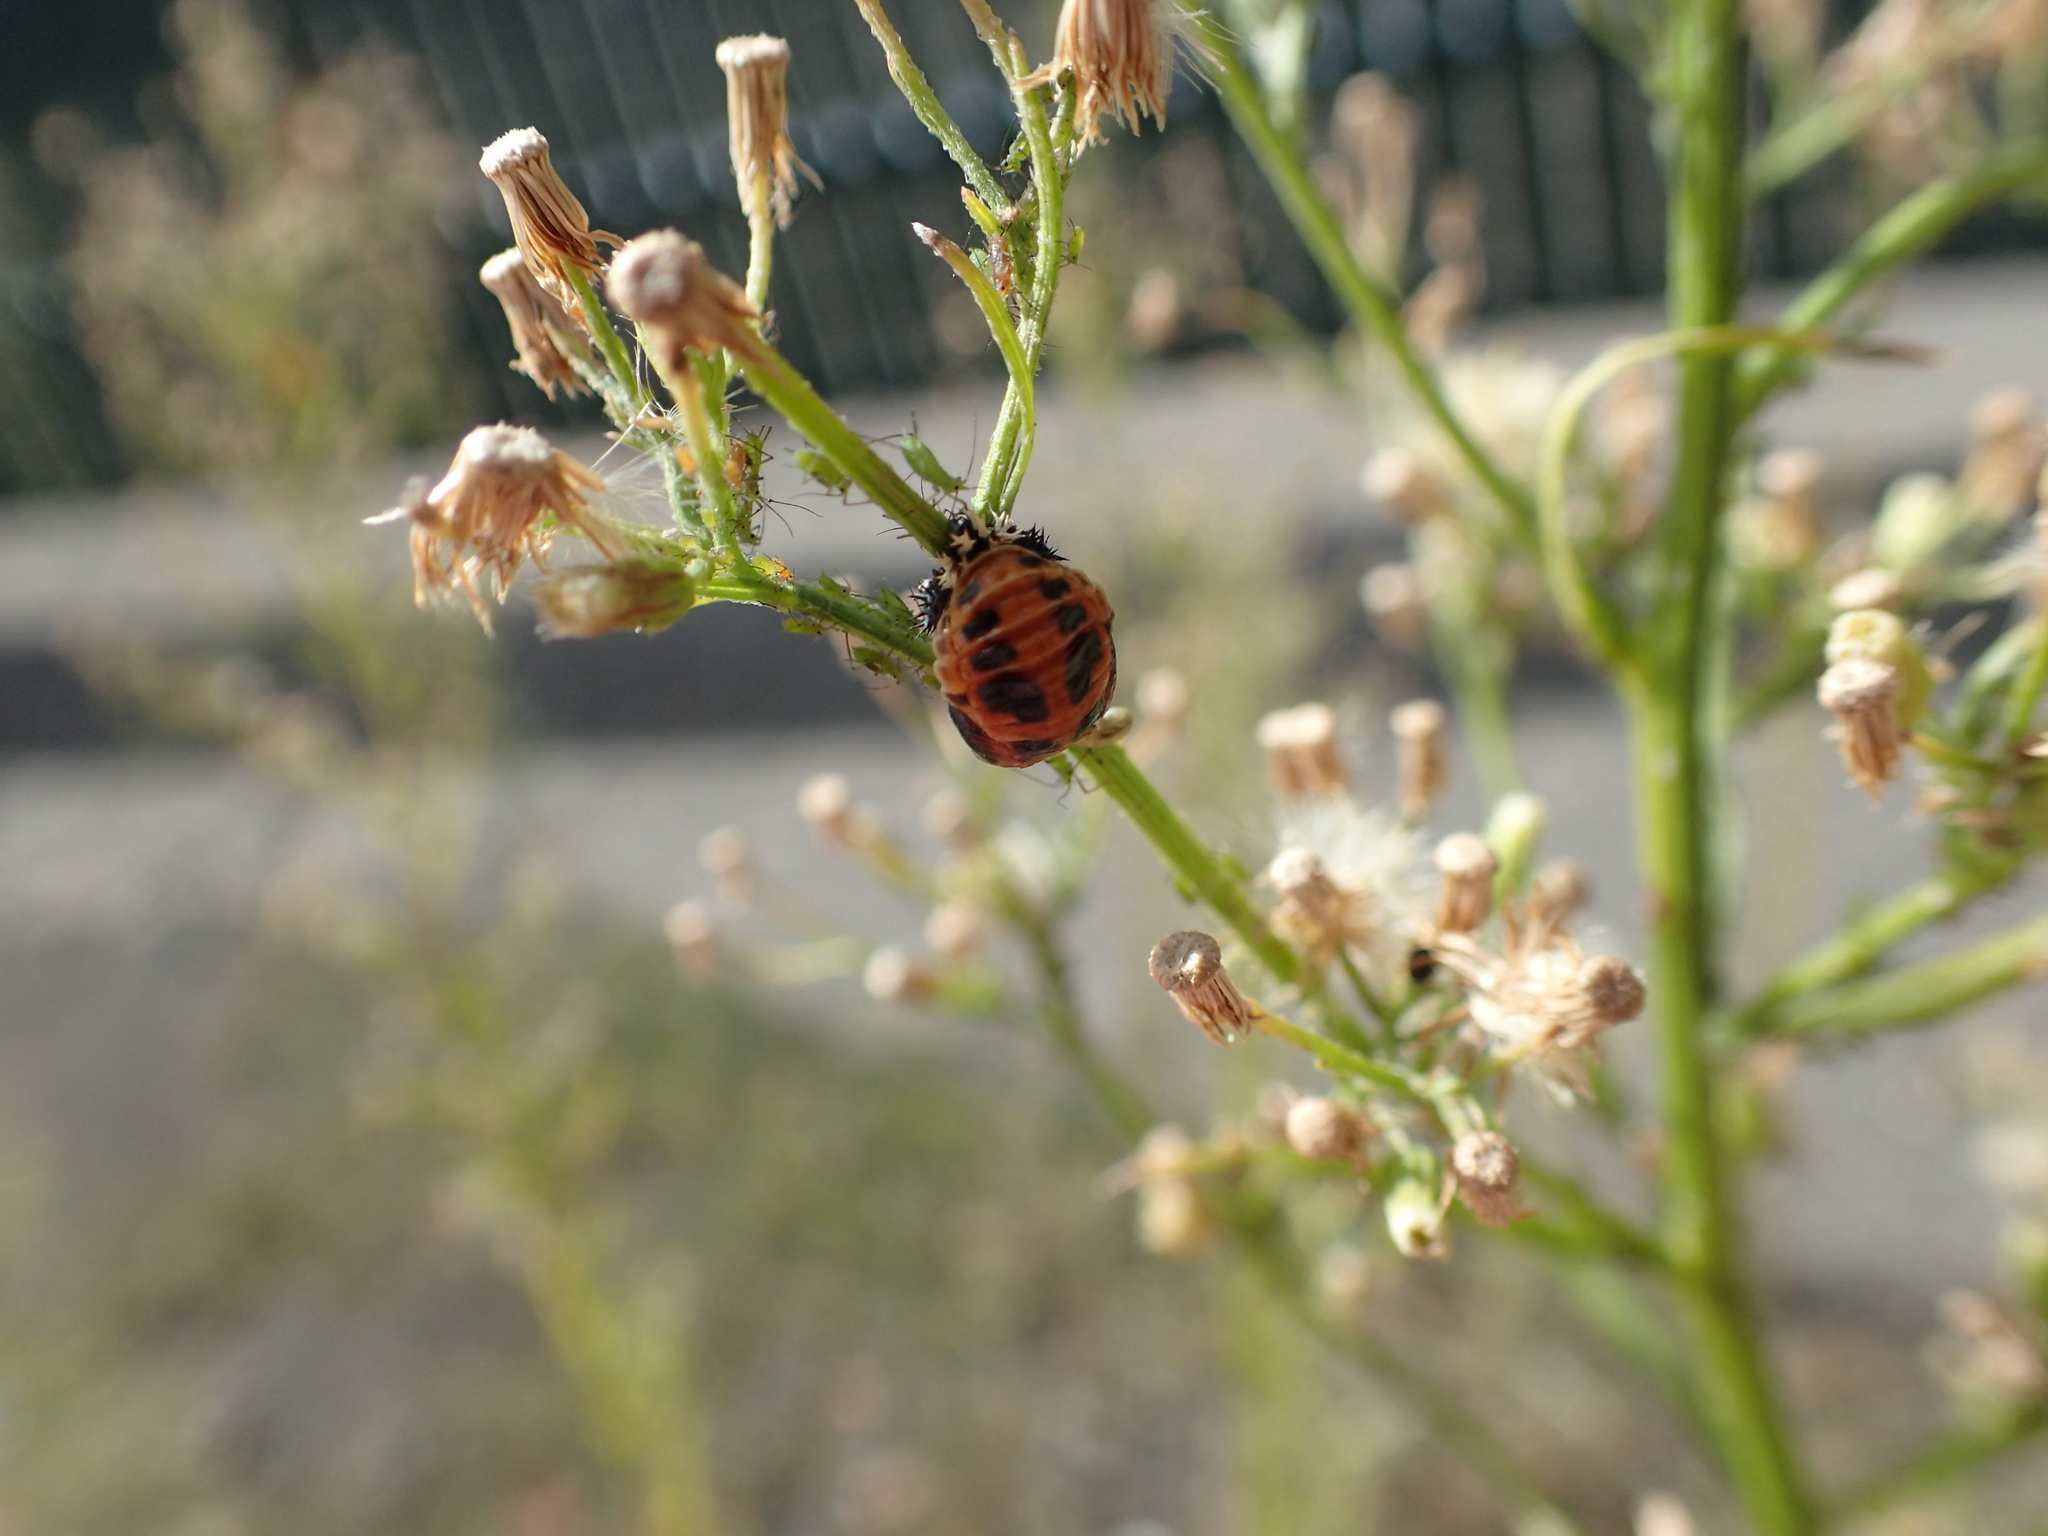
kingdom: Animalia
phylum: Arthropoda
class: Insecta
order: Coleoptera
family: Coccinellidae
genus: Harmonia
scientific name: Harmonia axyridis
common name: Harlequin ladybird
